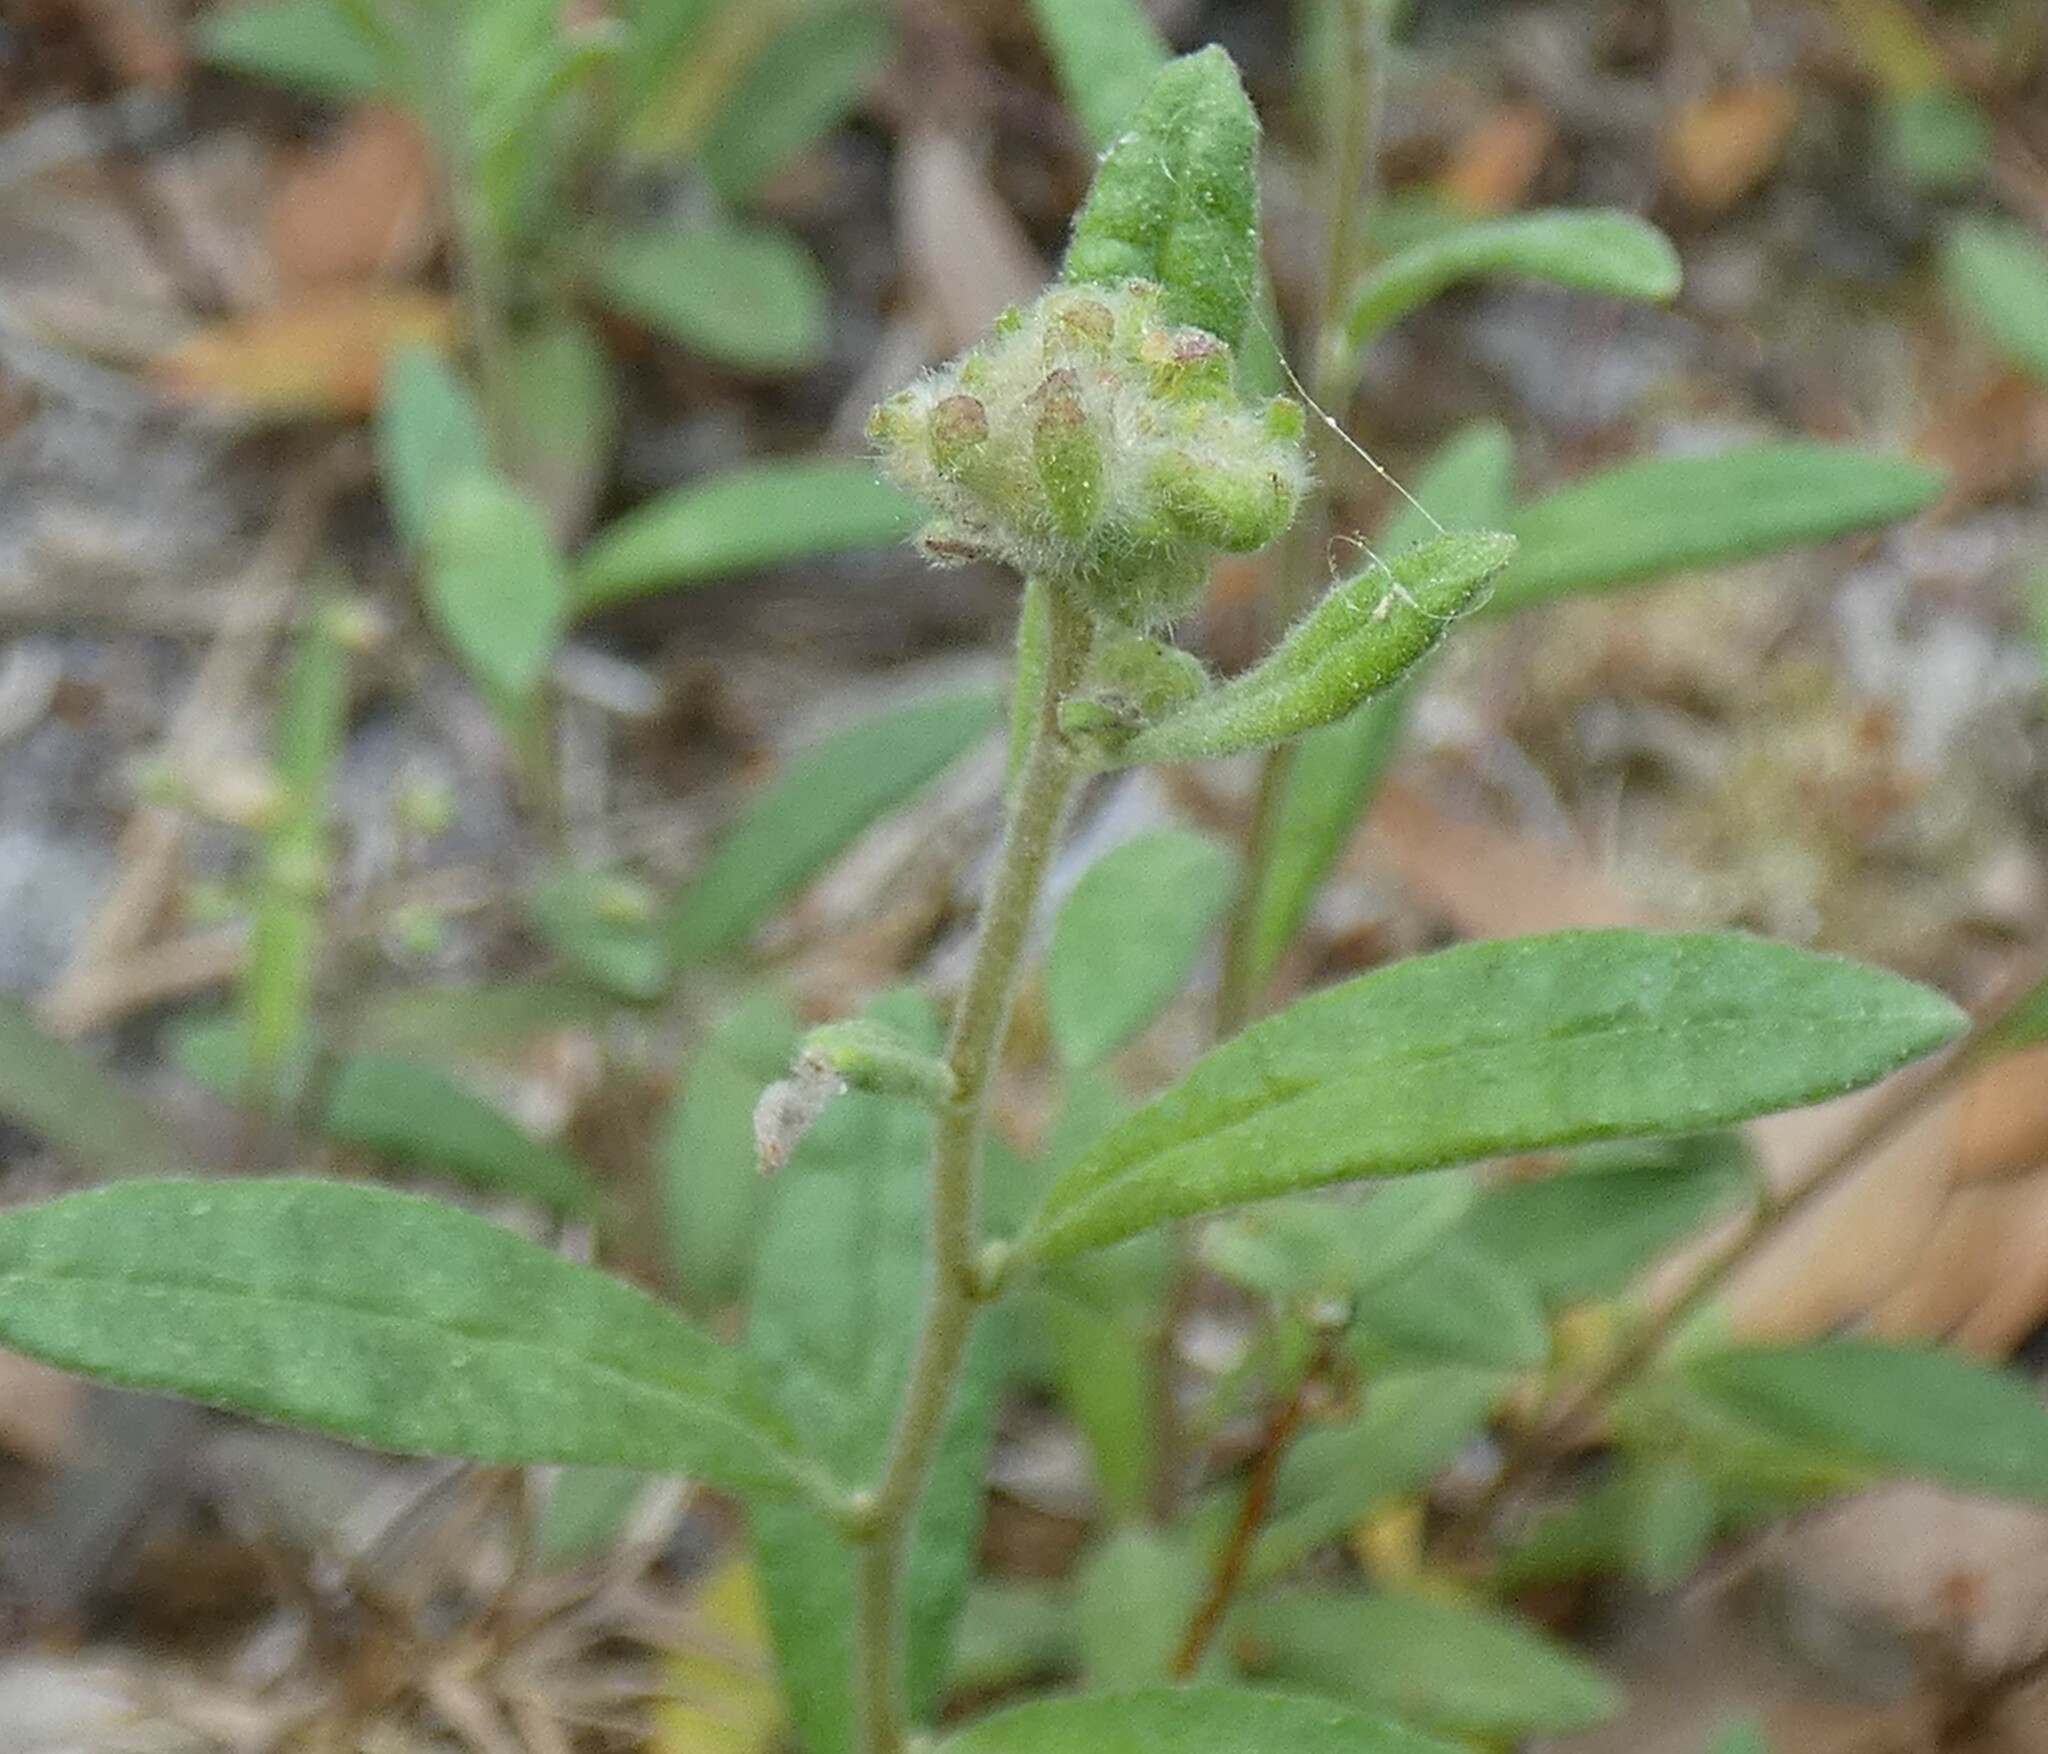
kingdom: Plantae
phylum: Tracheophyta
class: Magnoliopsida
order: Malvales
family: Cistaceae
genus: Crocanthemum
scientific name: Crocanthemum corymbosum
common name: Pinebarren sun-rose
